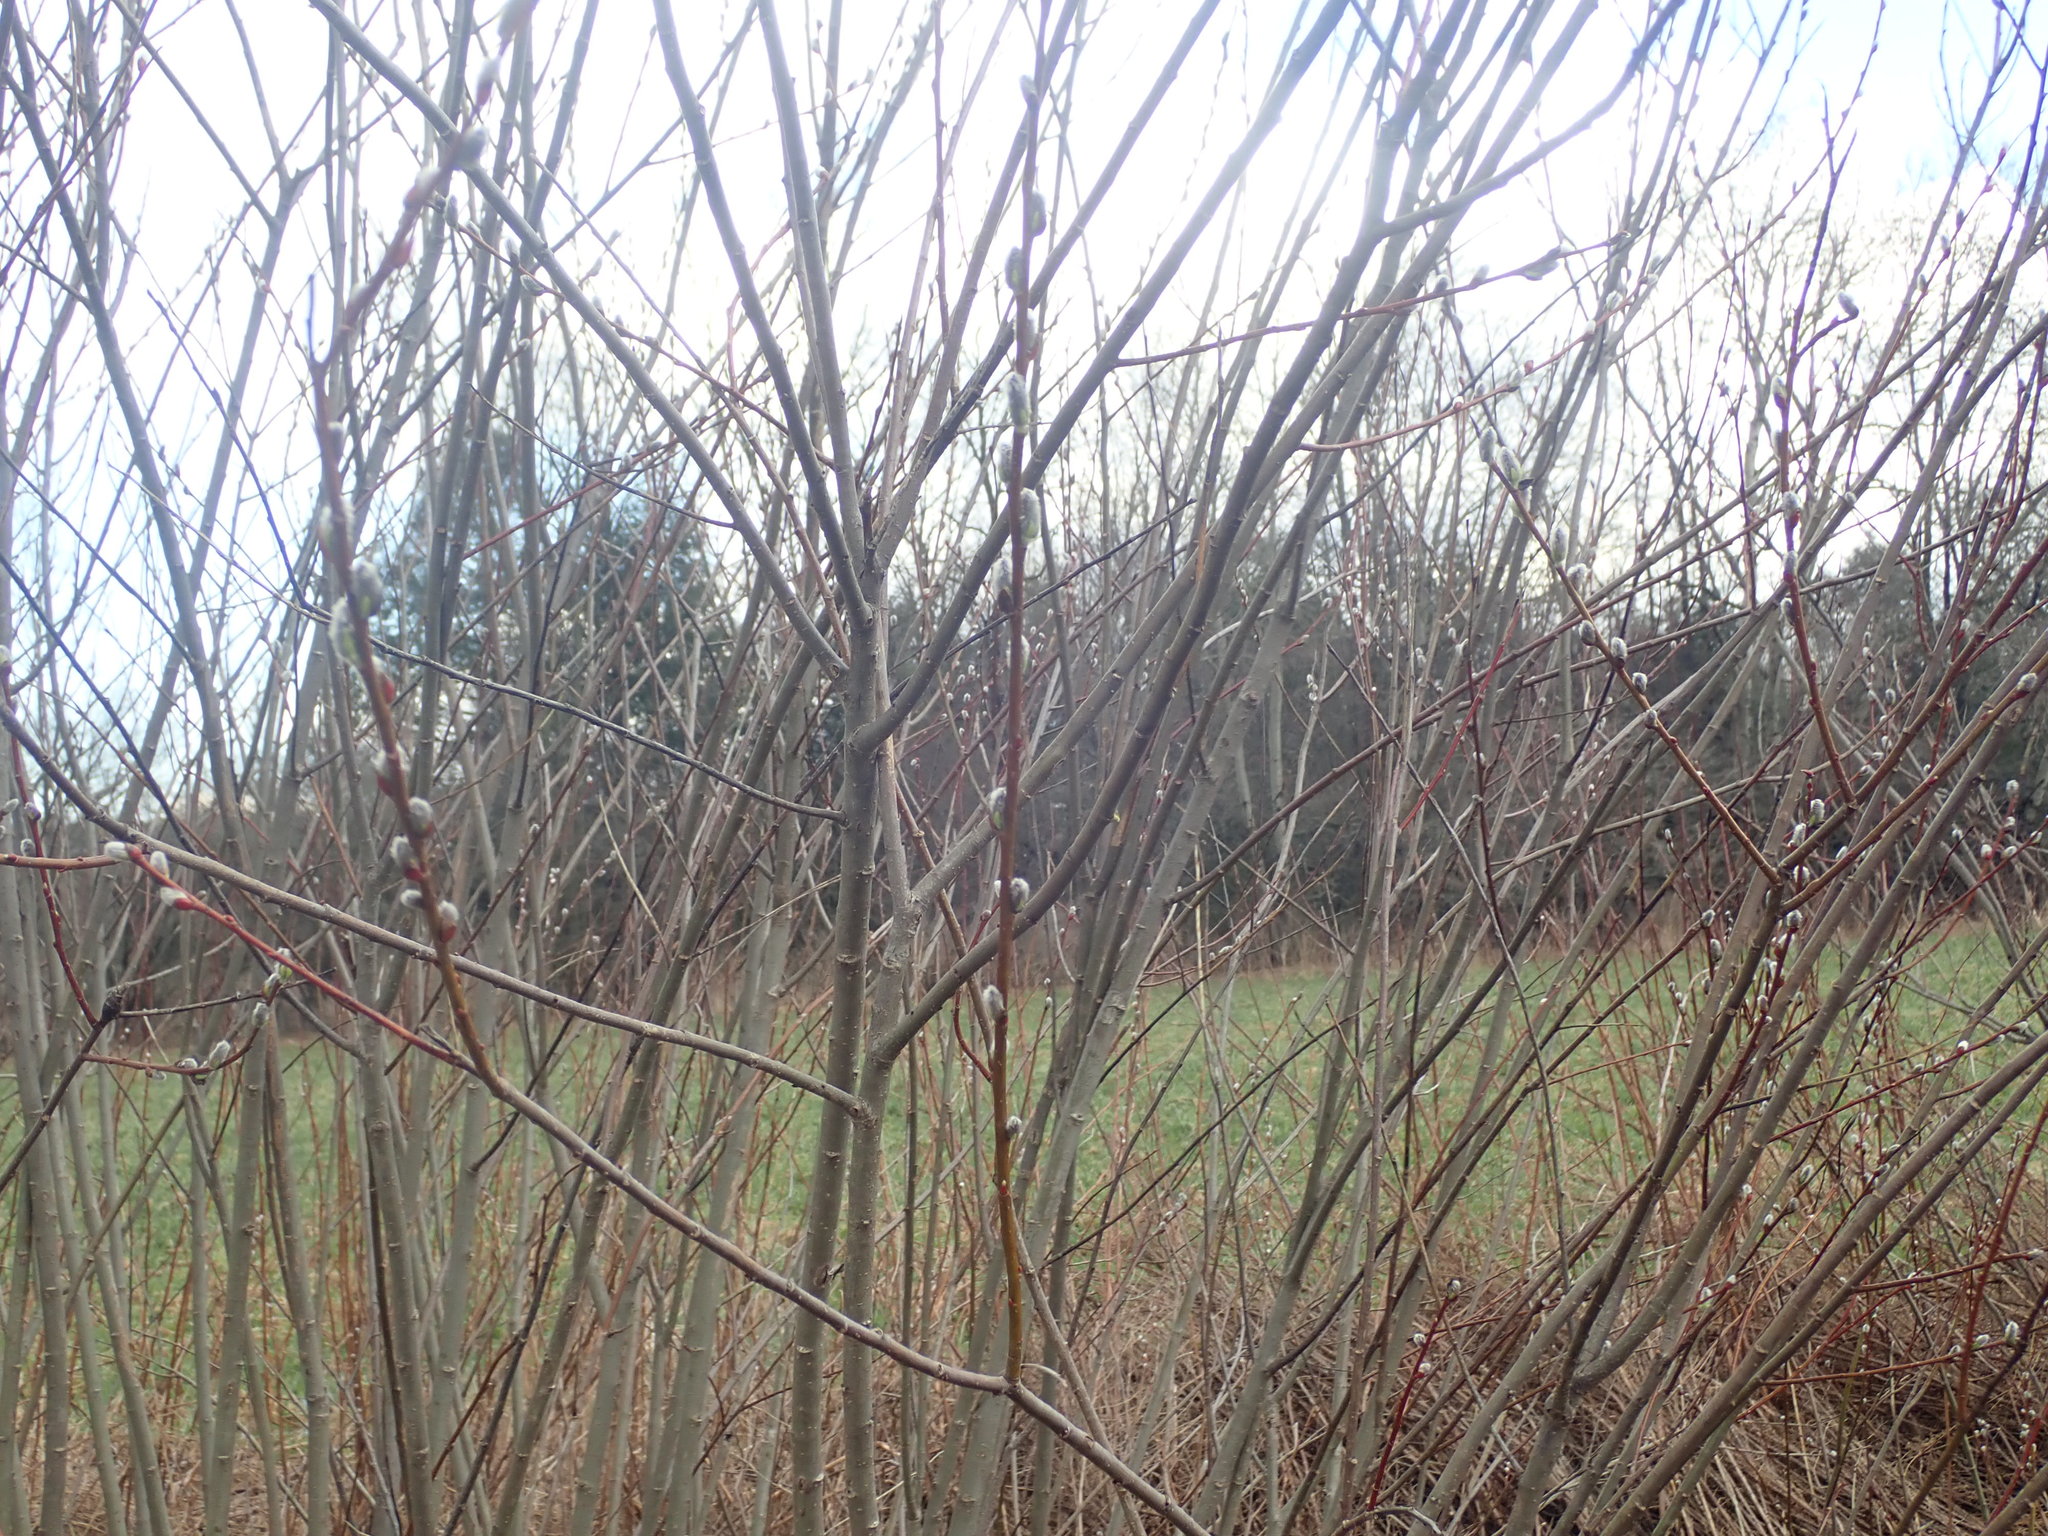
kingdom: Plantae
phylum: Tracheophyta
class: Magnoliopsida
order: Malpighiales
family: Salicaceae
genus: Salix
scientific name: Salix discolor
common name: Glaucous willow
